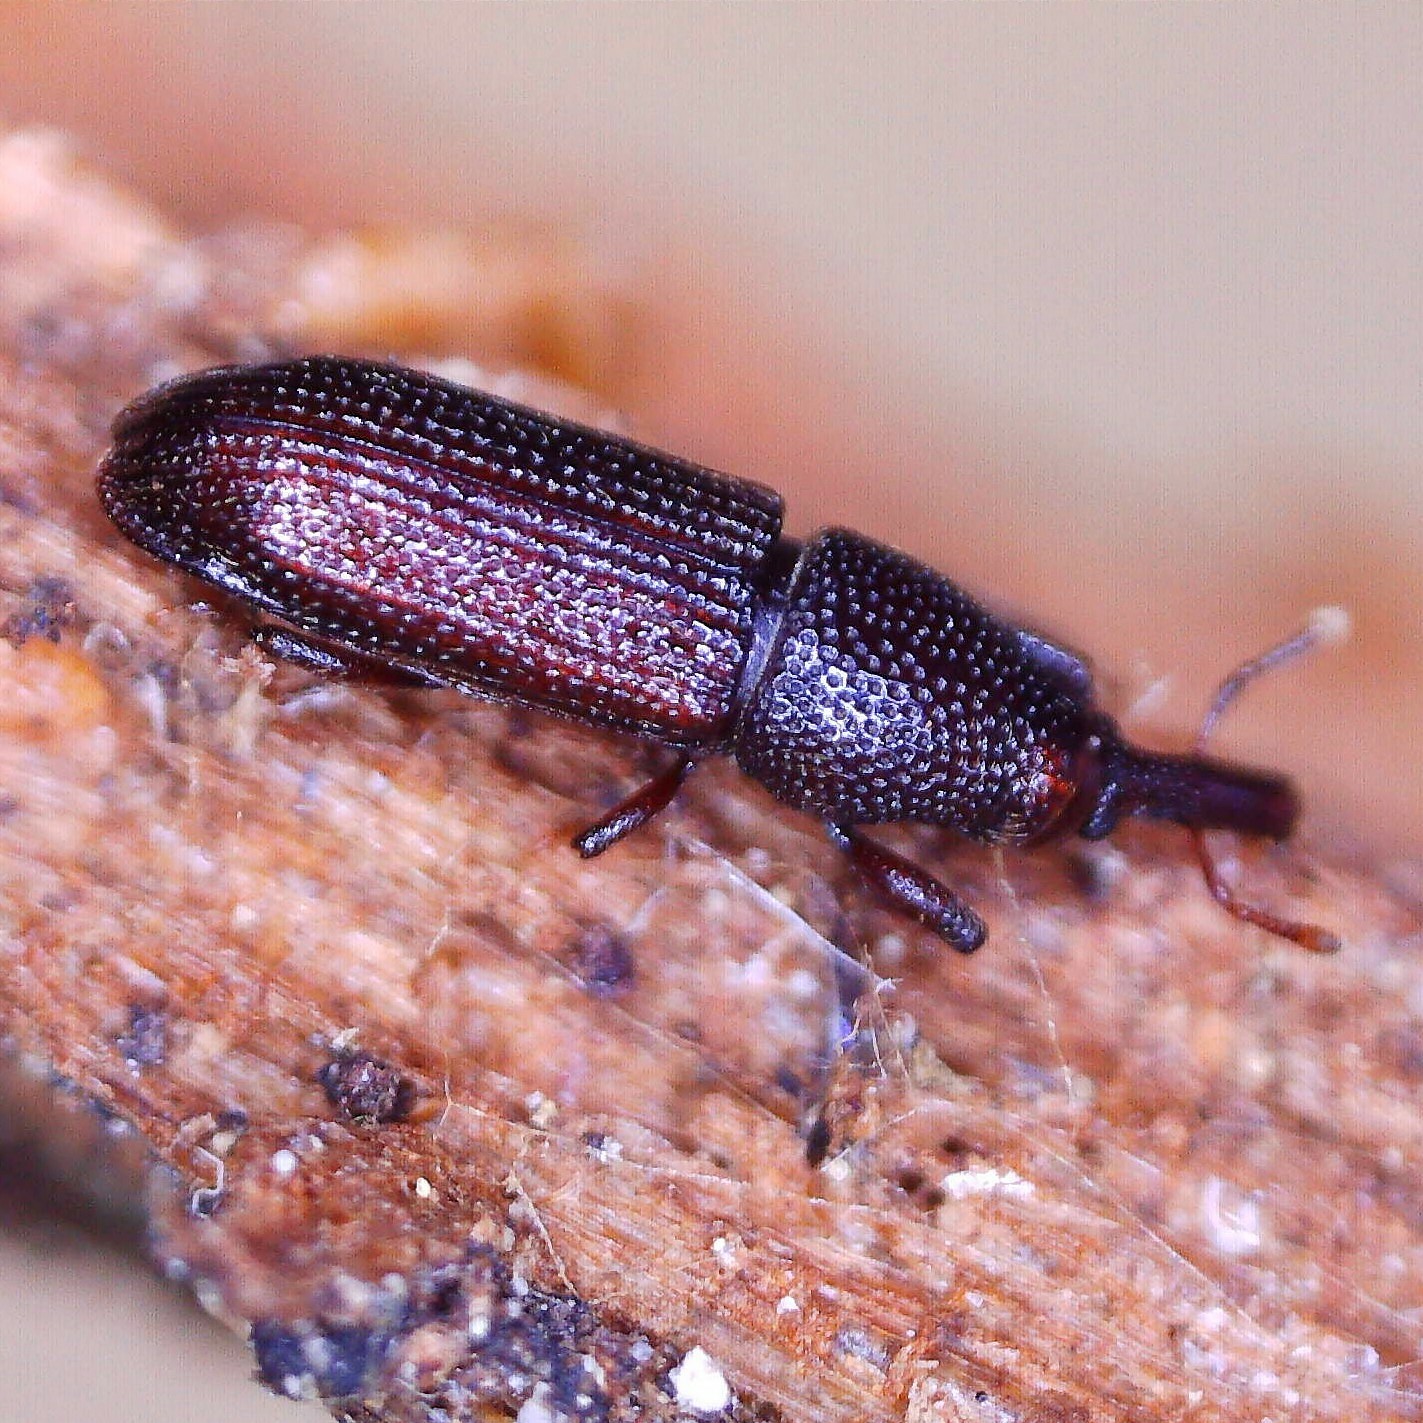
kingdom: Animalia
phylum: Arthropoda
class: Insecta
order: Coleoptera
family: Curculionidae
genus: Pentarthrum
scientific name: Pentarthrum confine
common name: Weevil
